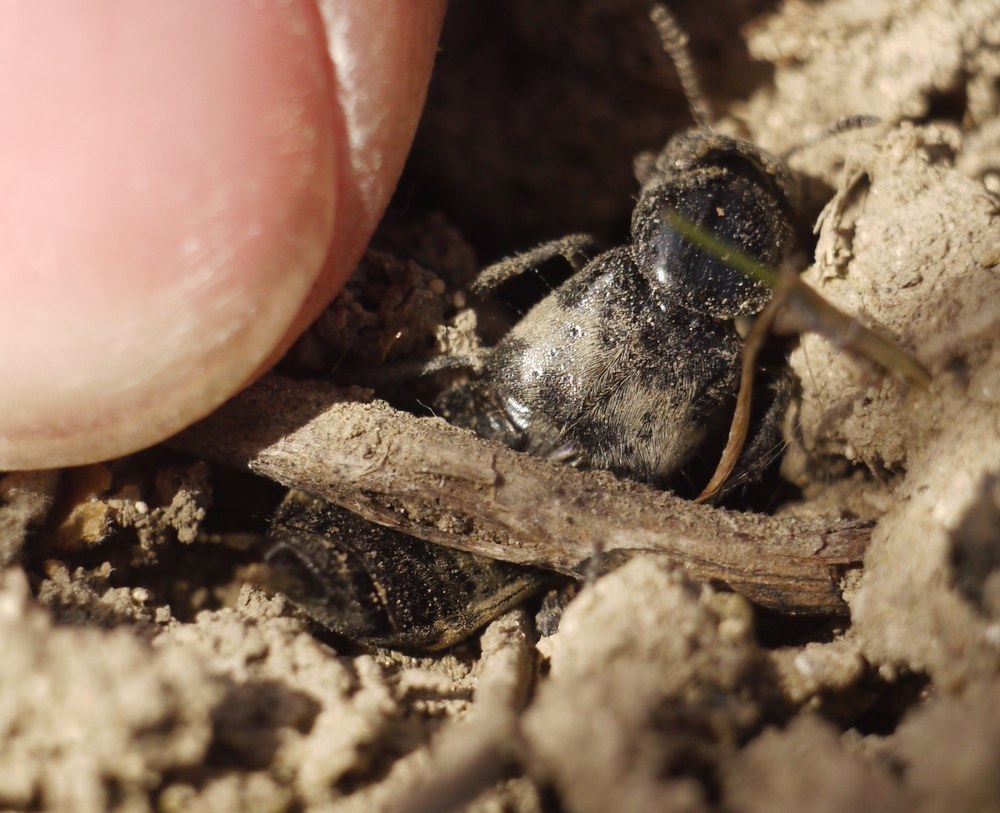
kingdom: Animalia
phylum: Arthropoda
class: Insecta
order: Coleoptera
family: Staphylinidae
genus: Creophilus
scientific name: Creophilus maxillosus
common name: Hairy rove beetle
